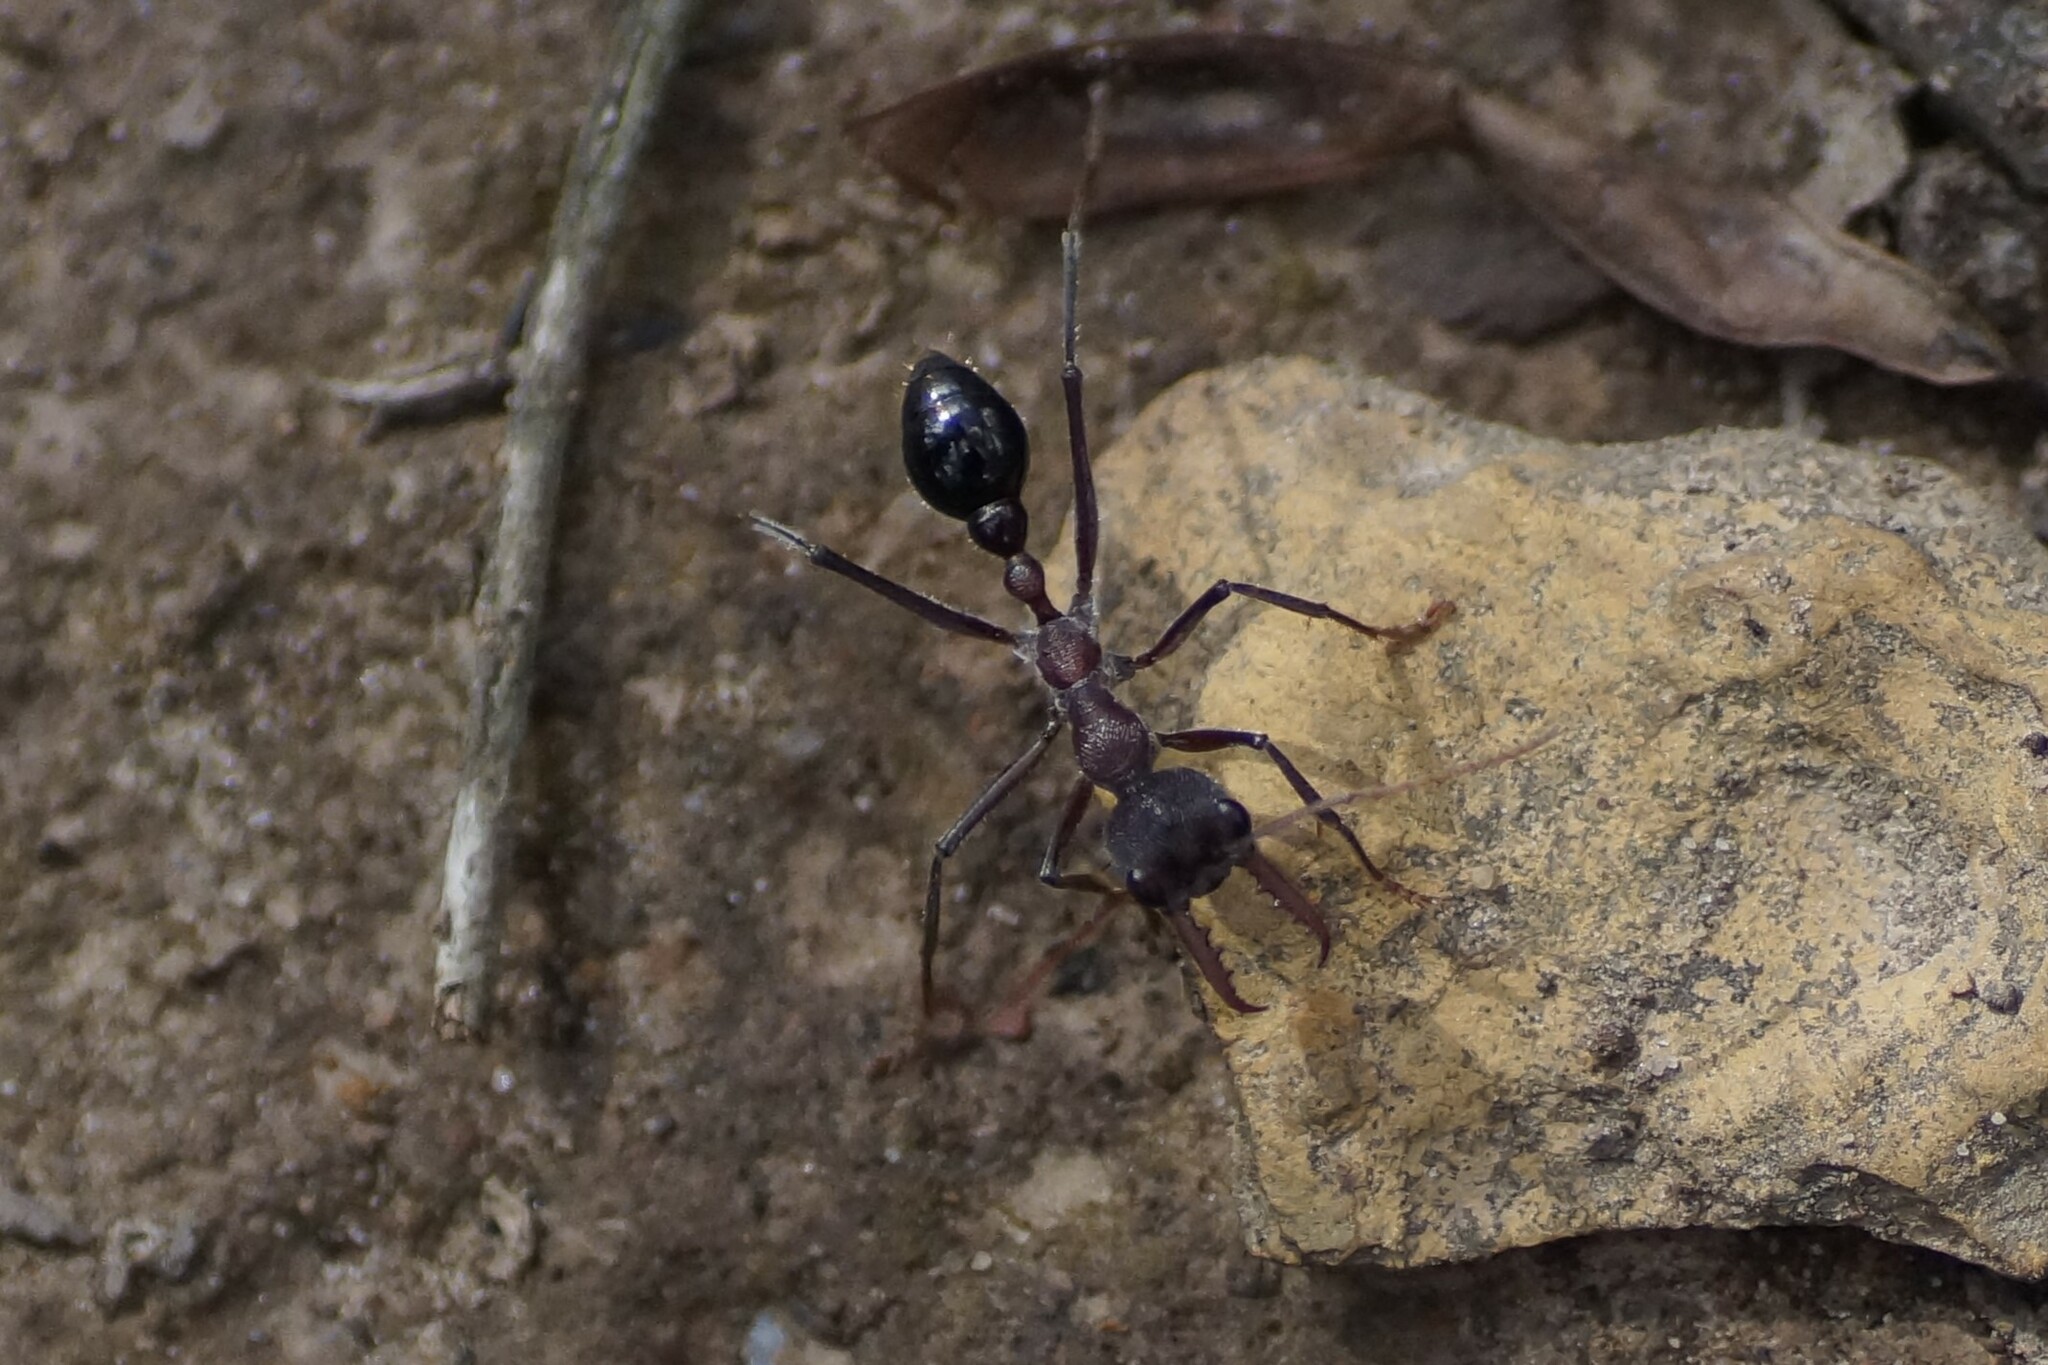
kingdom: Animalia
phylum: Arthropoda
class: Insecta
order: Hymenoptera
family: Formicidae
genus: Myrmecia
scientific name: Myrmecia simillima
